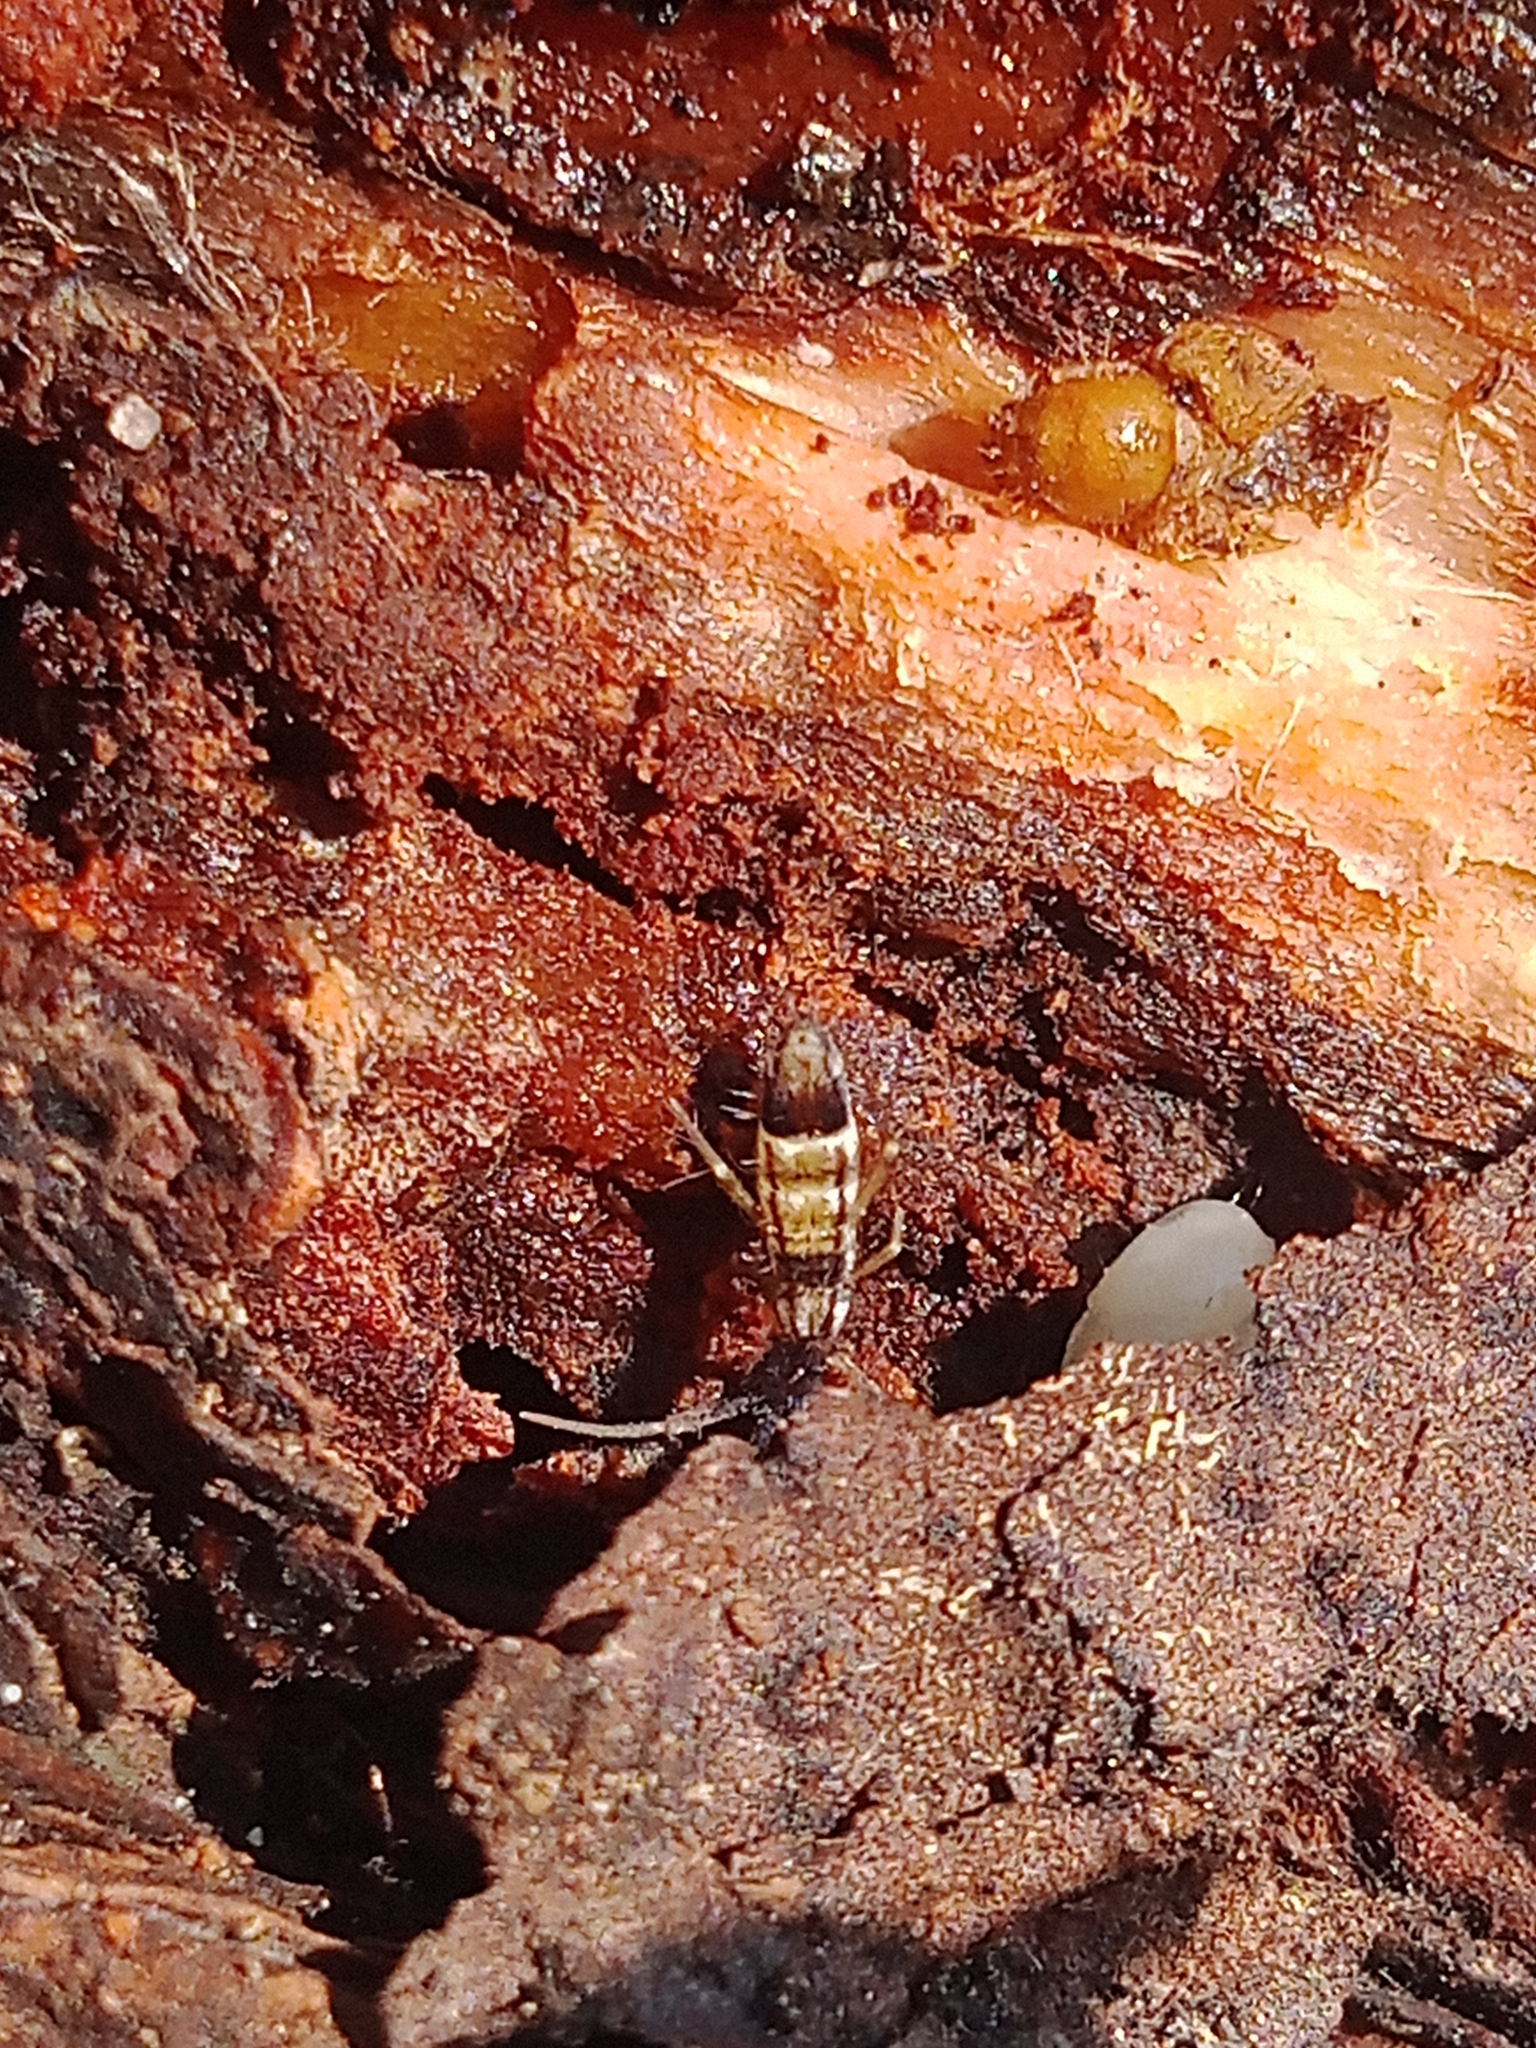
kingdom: Animalia
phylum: Arthropoda
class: Collembola
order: Entomobryomorpha
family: Entomobryidae
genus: Entomobrya
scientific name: Entomobrya nivalis
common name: Cosmopolitan springtail
